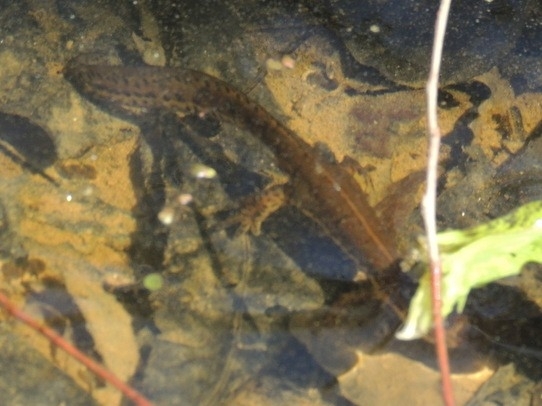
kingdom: Animalia
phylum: Chordata
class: Amphibia
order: Caudata
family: Salamandridae
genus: Notophthalmus
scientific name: Notophthalmus viridescens
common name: Eastern newt
